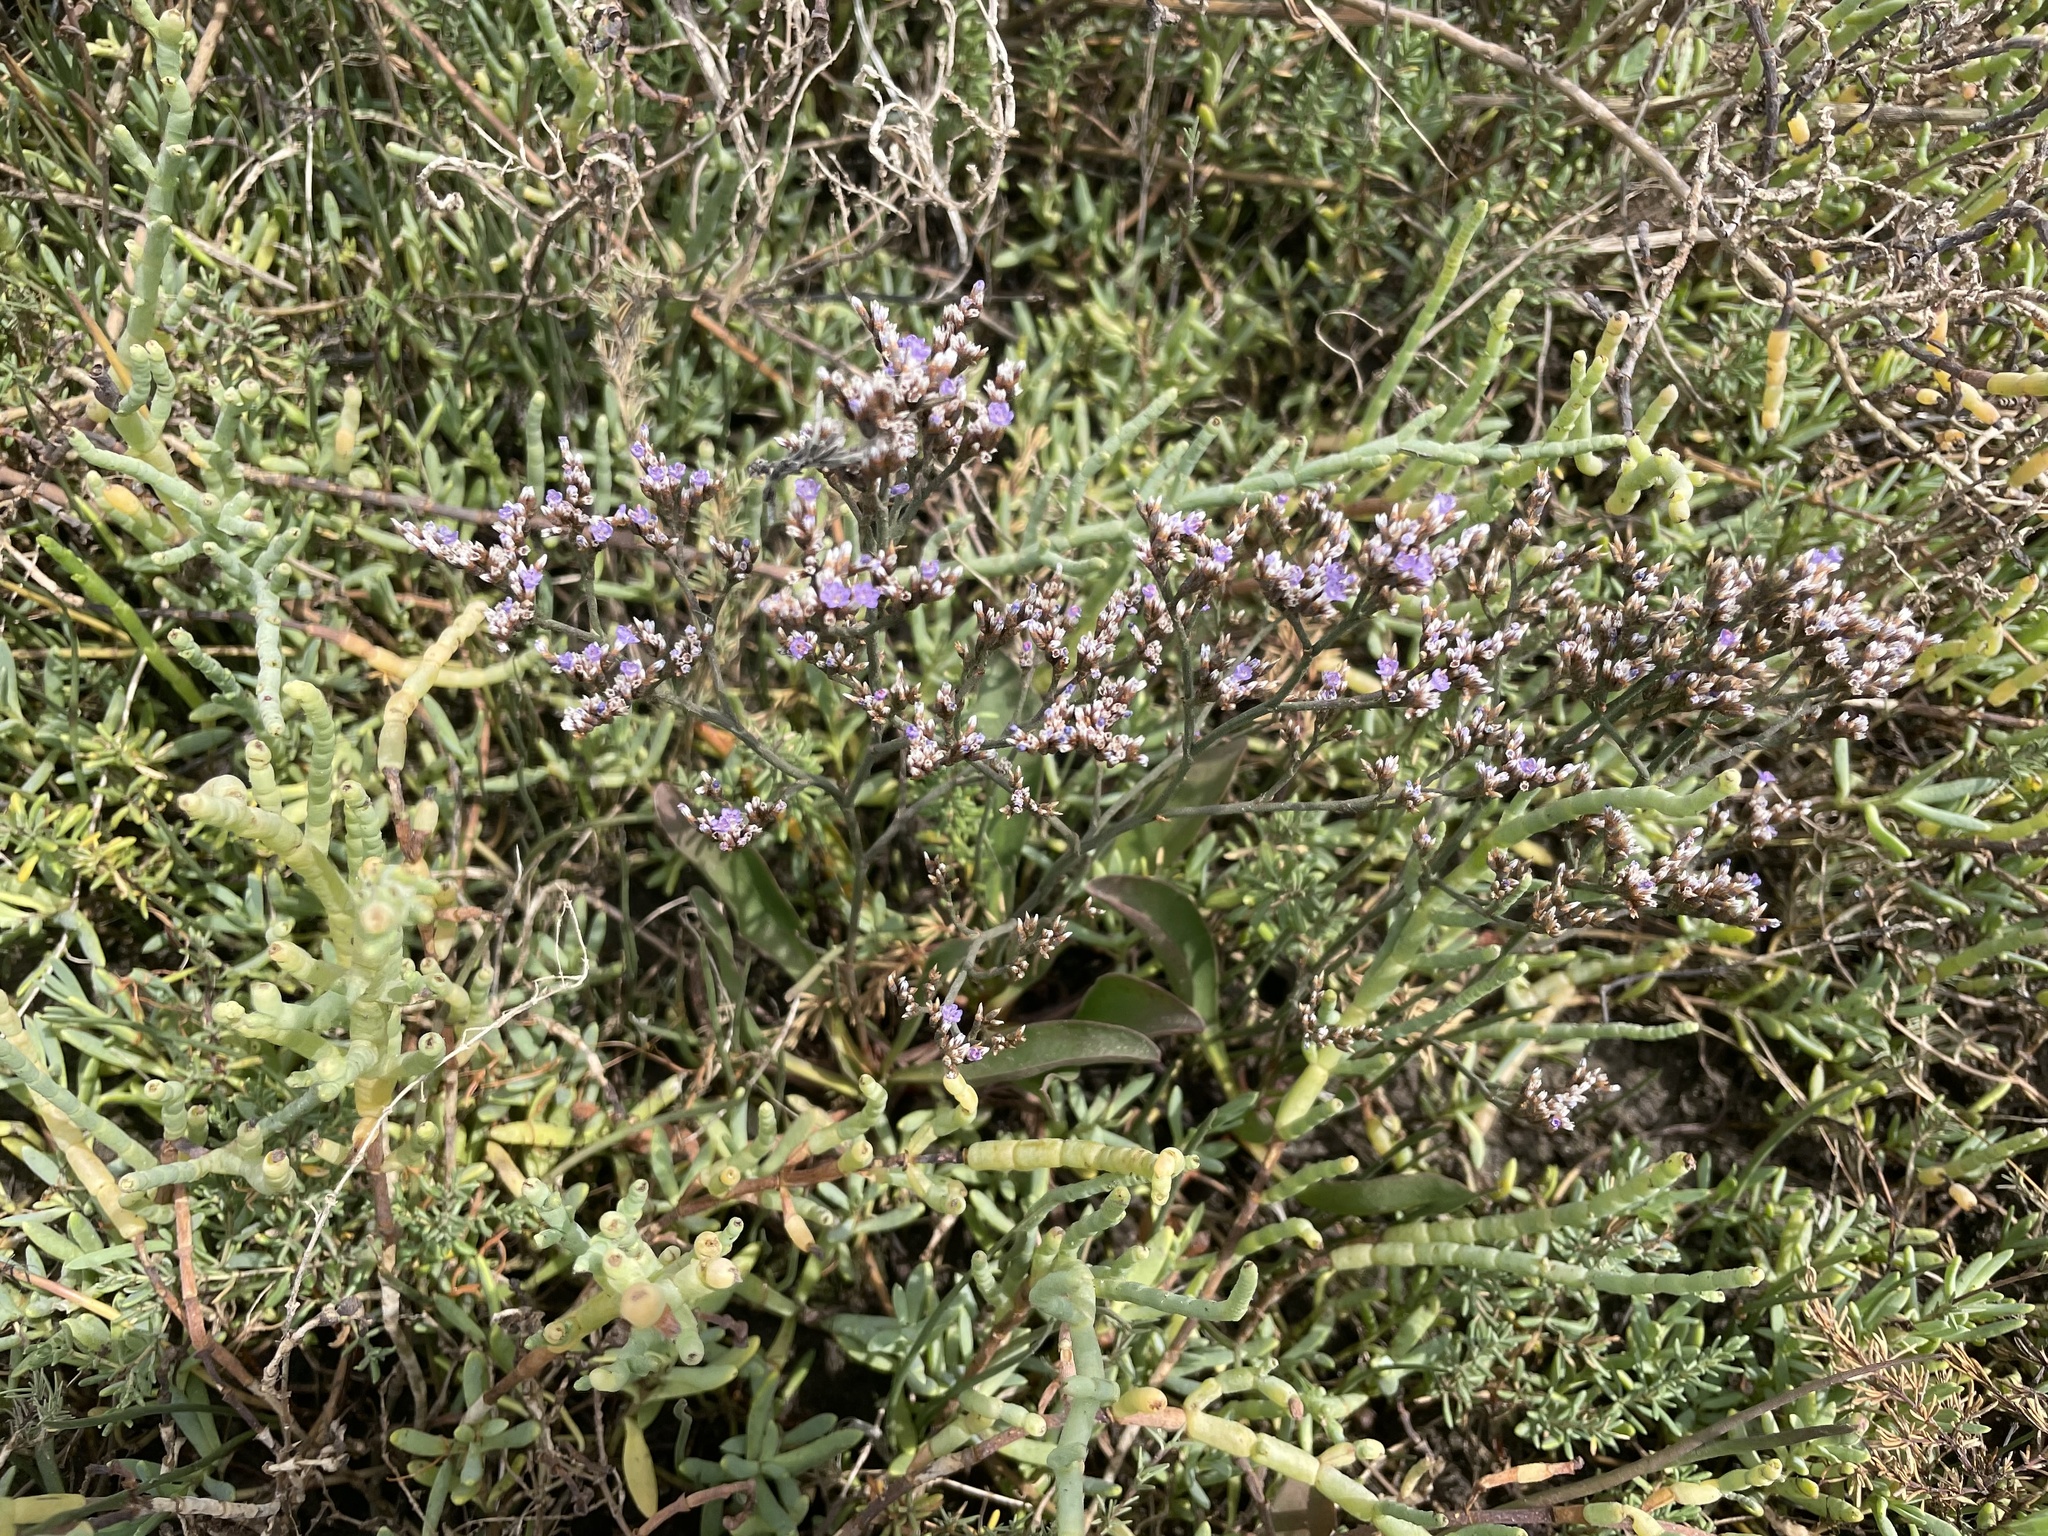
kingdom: Plantae
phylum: Tracheophyta
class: Magnoliopsida
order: Caryophyllales
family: Plumbaginaceae
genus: Limonium
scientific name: Limonium californicum
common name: Marsh-rosemary
